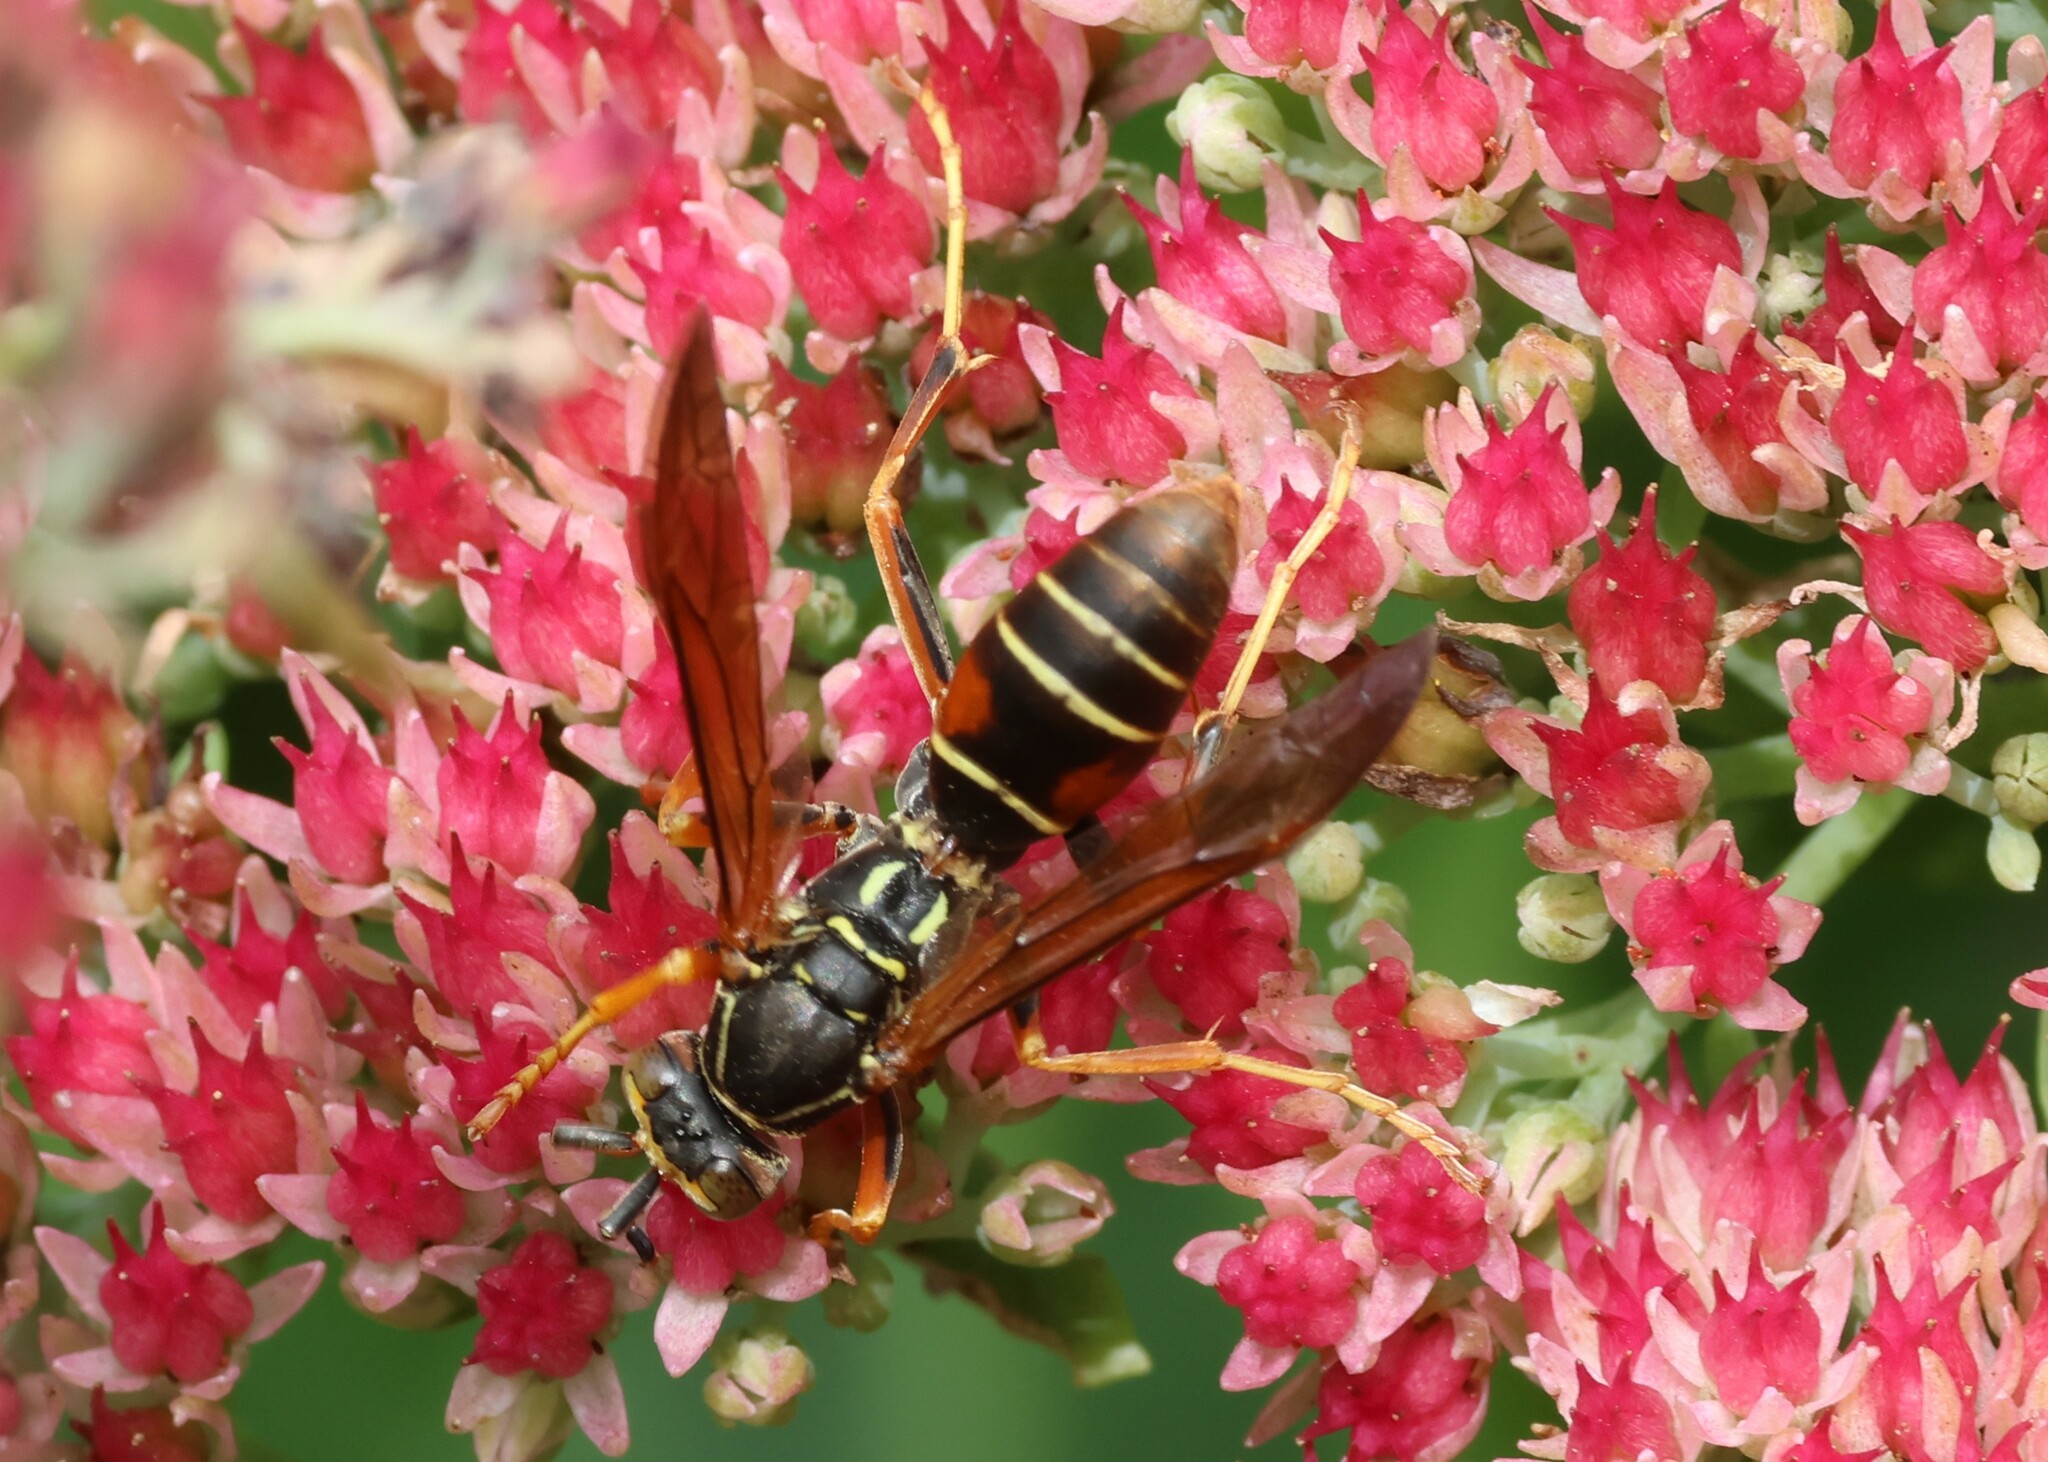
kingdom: Animalia
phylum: Arthropoda
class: Insecta
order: Hymenoptera
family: Eumenidae
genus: Polistes
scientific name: Polistes fuscatus
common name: Dark paper wasp
